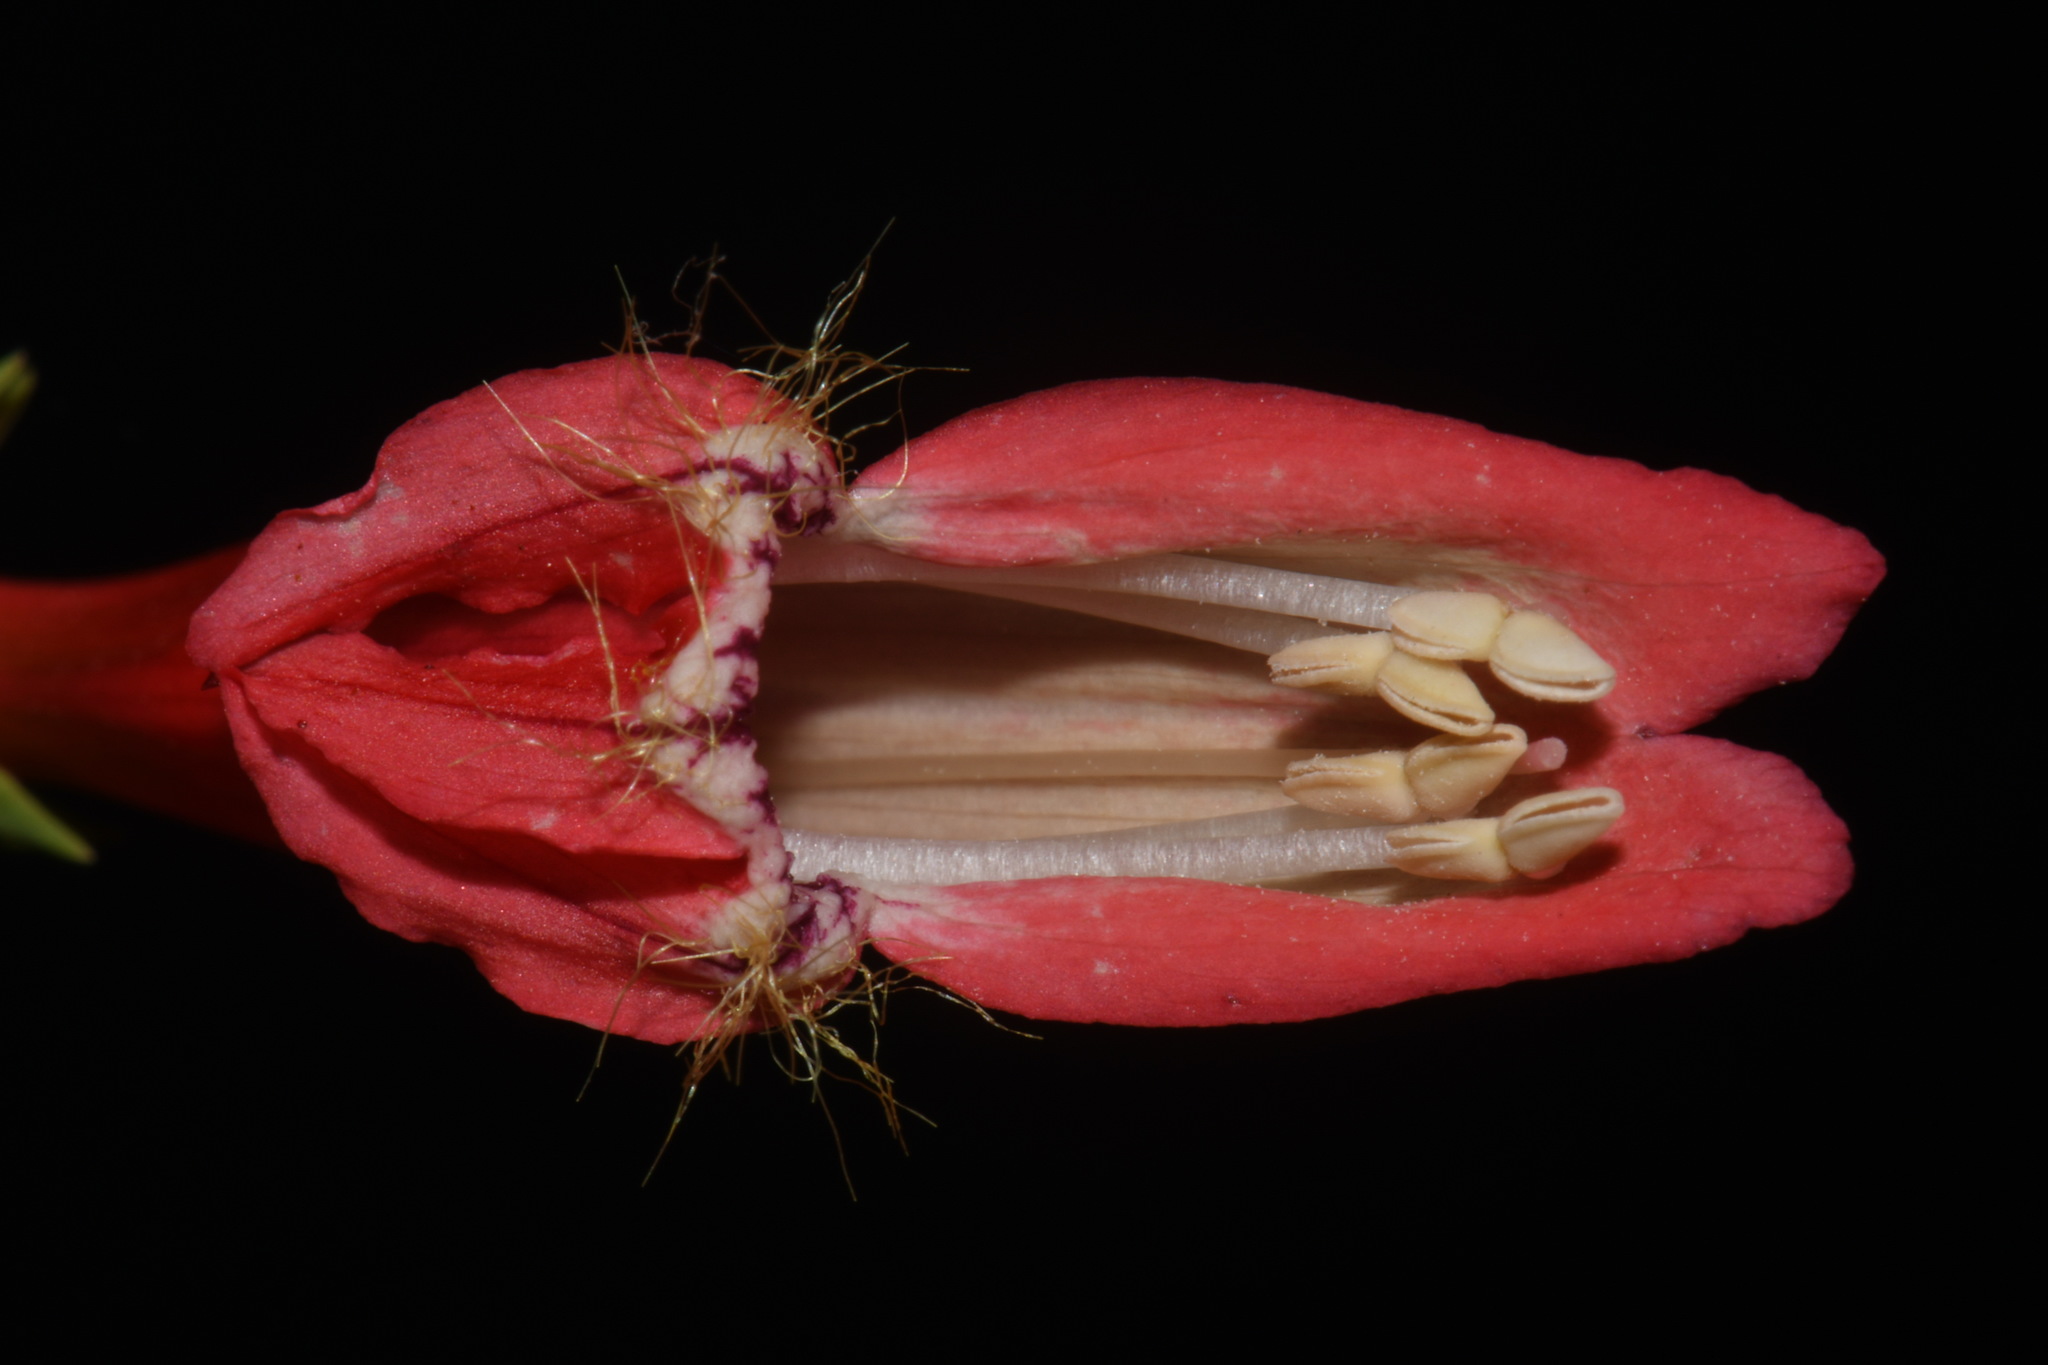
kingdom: Plantae
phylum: Tracheophyta
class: Magnoliopsida
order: Lamiales
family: Plantaginaceae
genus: Penstemon
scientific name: Penstemon barbatus
